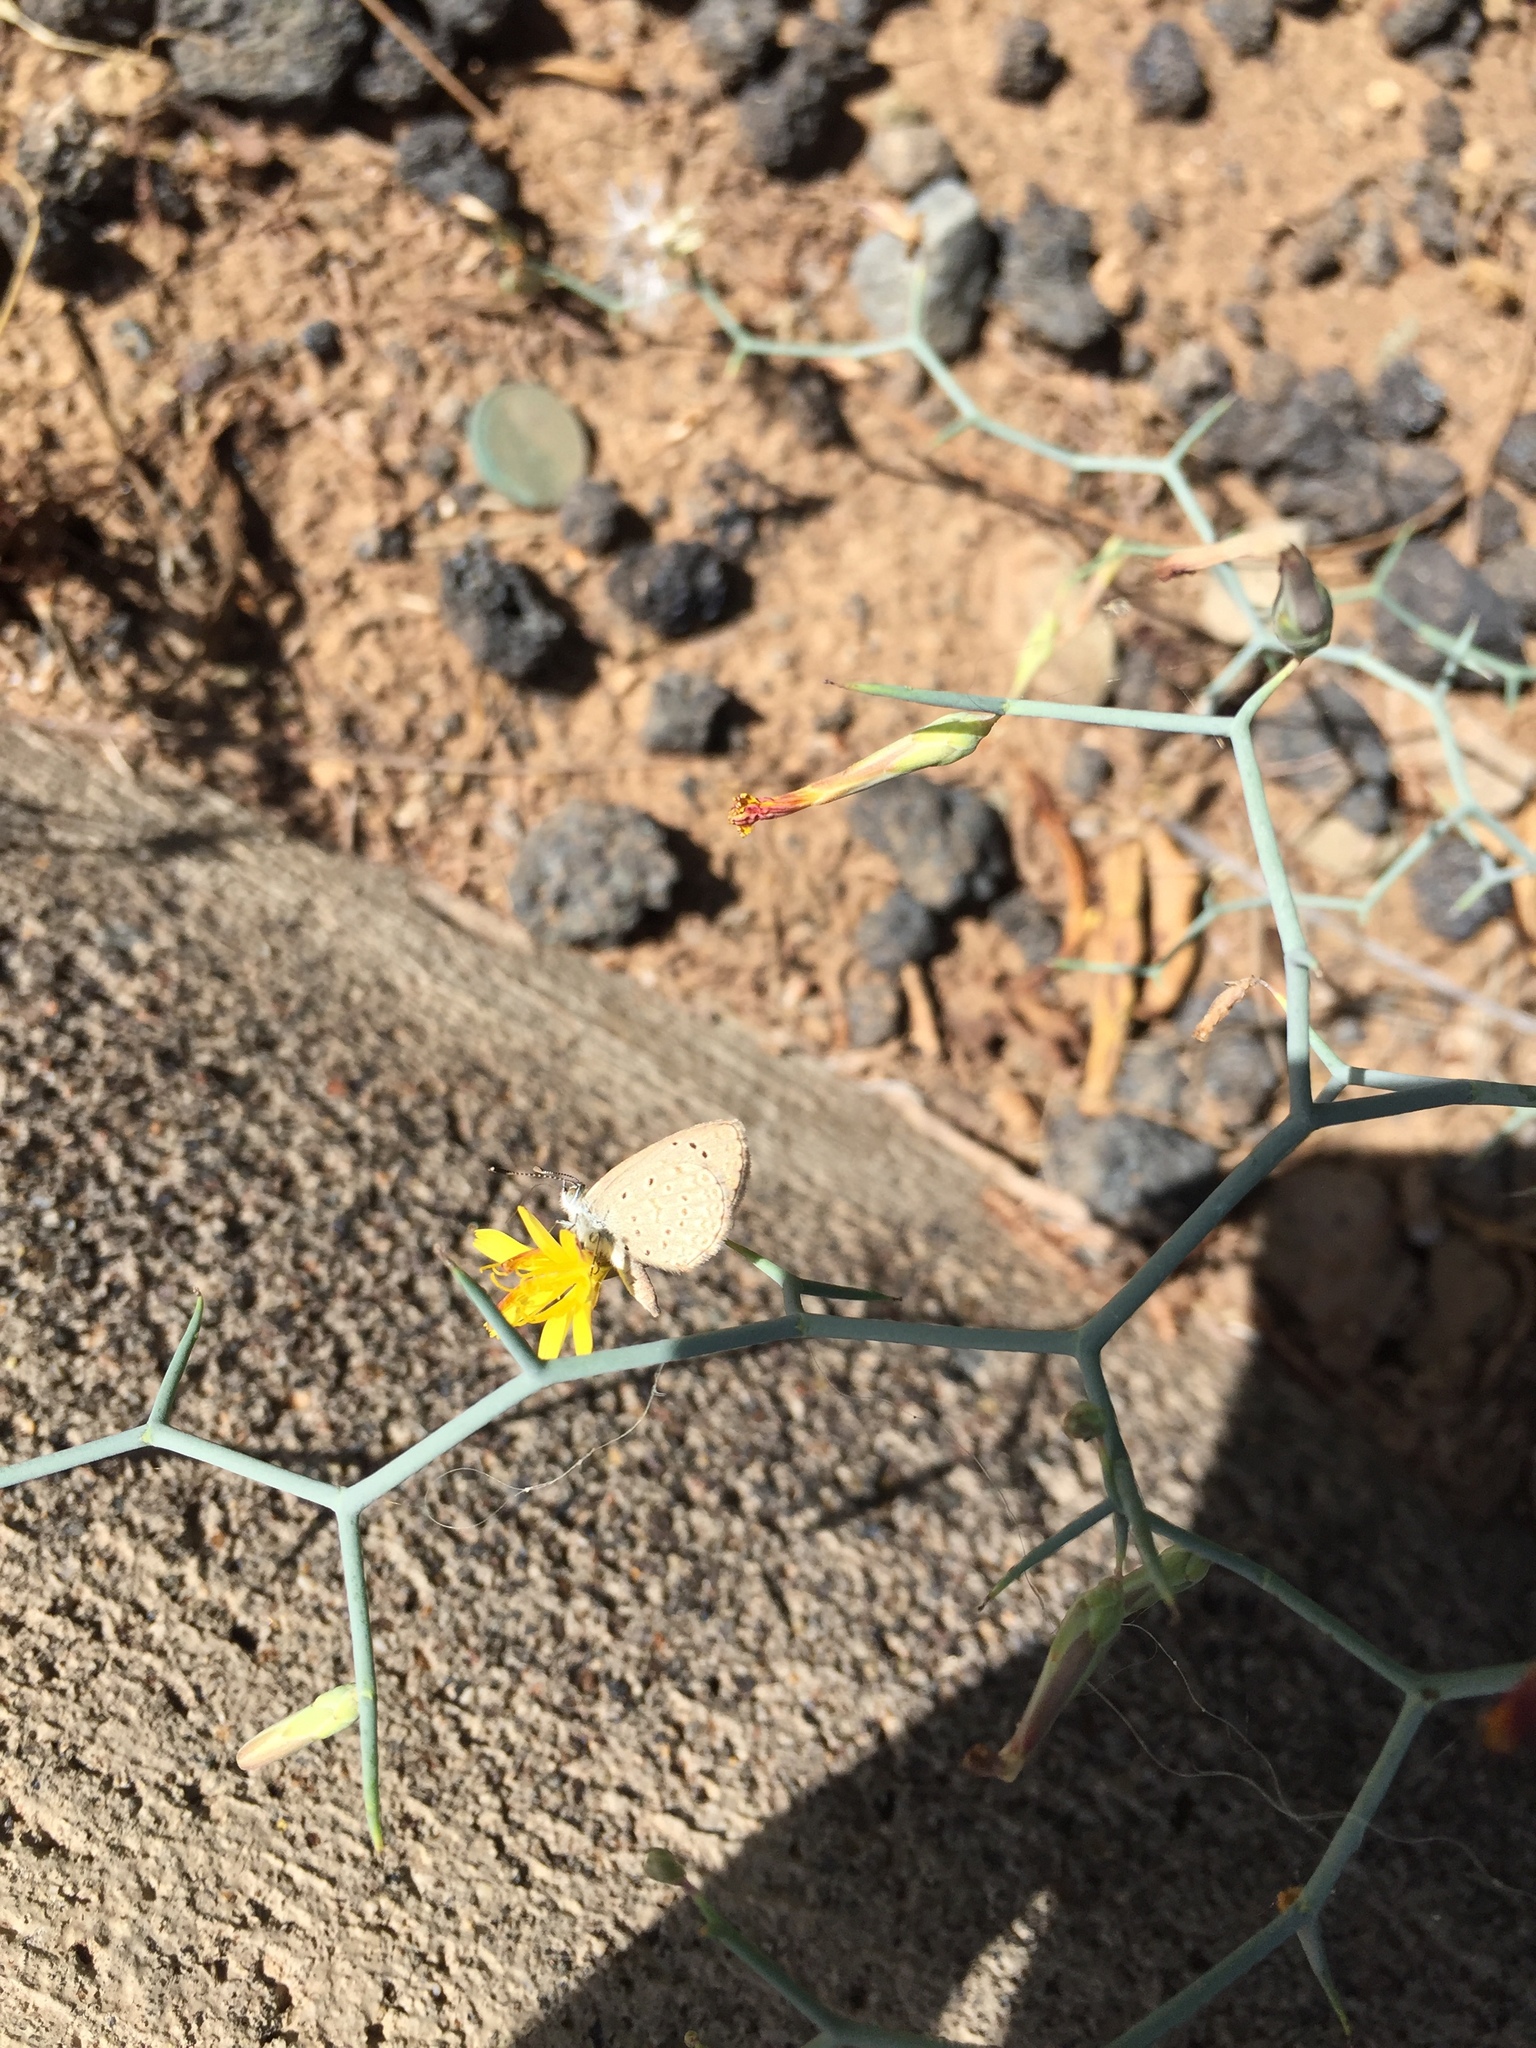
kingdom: Animalia
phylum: Arthropoda
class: Insecta
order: Lepidoptera
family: Lycaenidae
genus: Zizeeria
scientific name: Zizeeria knysna
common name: African grass blue
